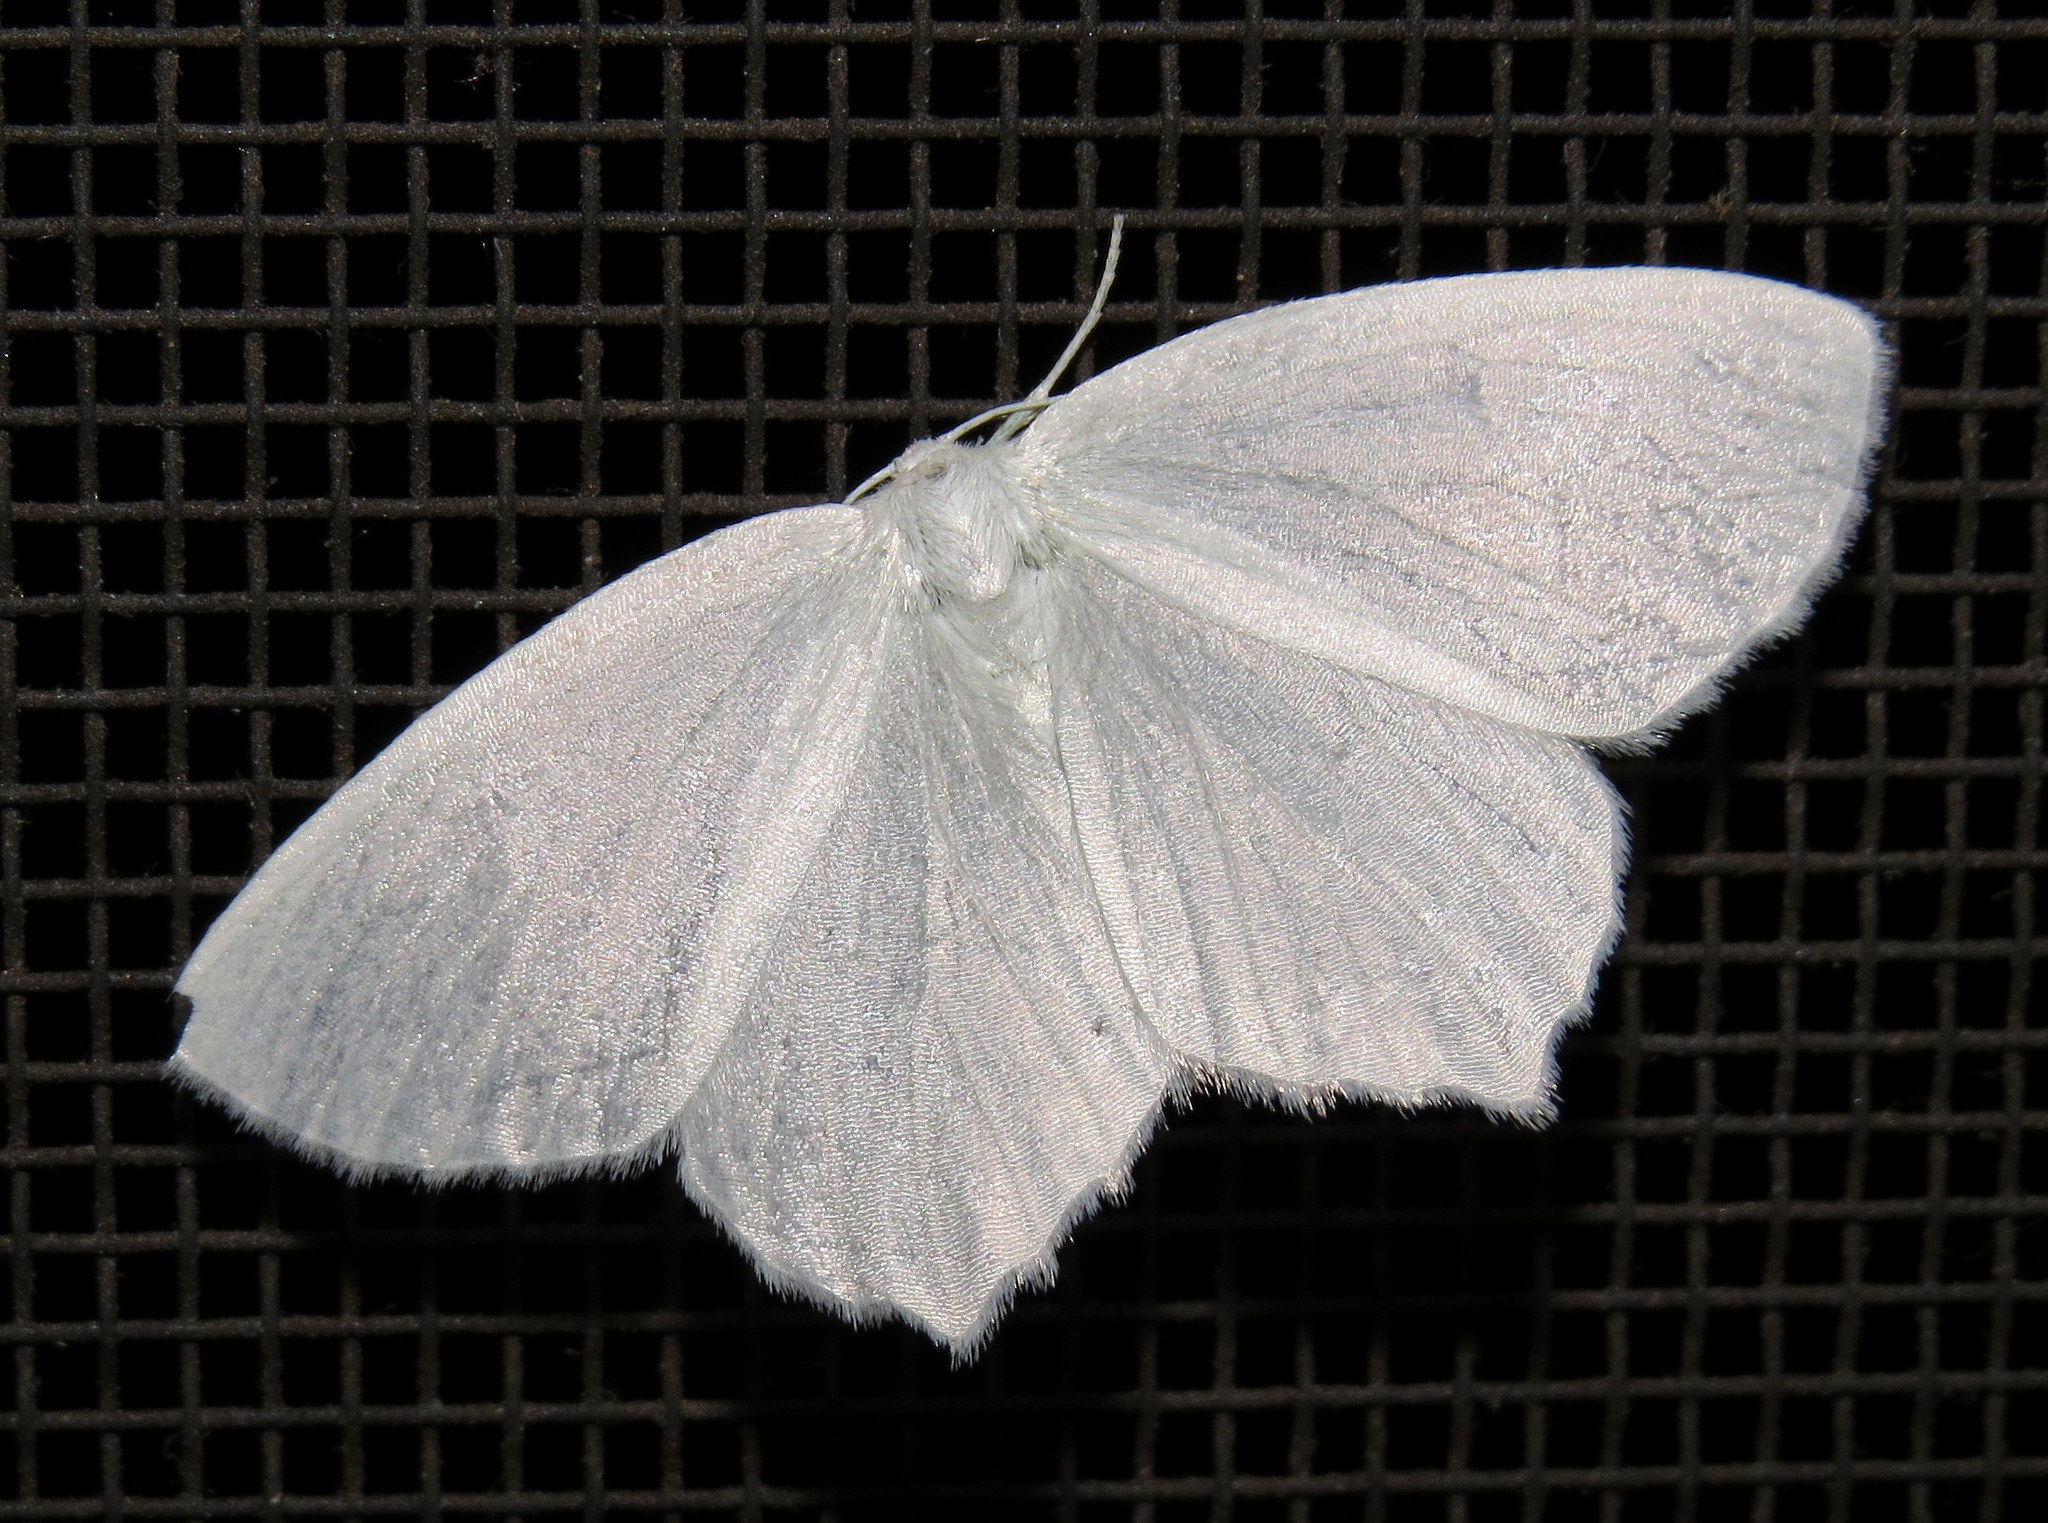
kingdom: Animalia
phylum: Arthropoda
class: Insecta
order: Lepidoptera
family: Geometridae
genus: Eugonobapta
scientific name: Eugonobapta nivosaria
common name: Snowy geometer
